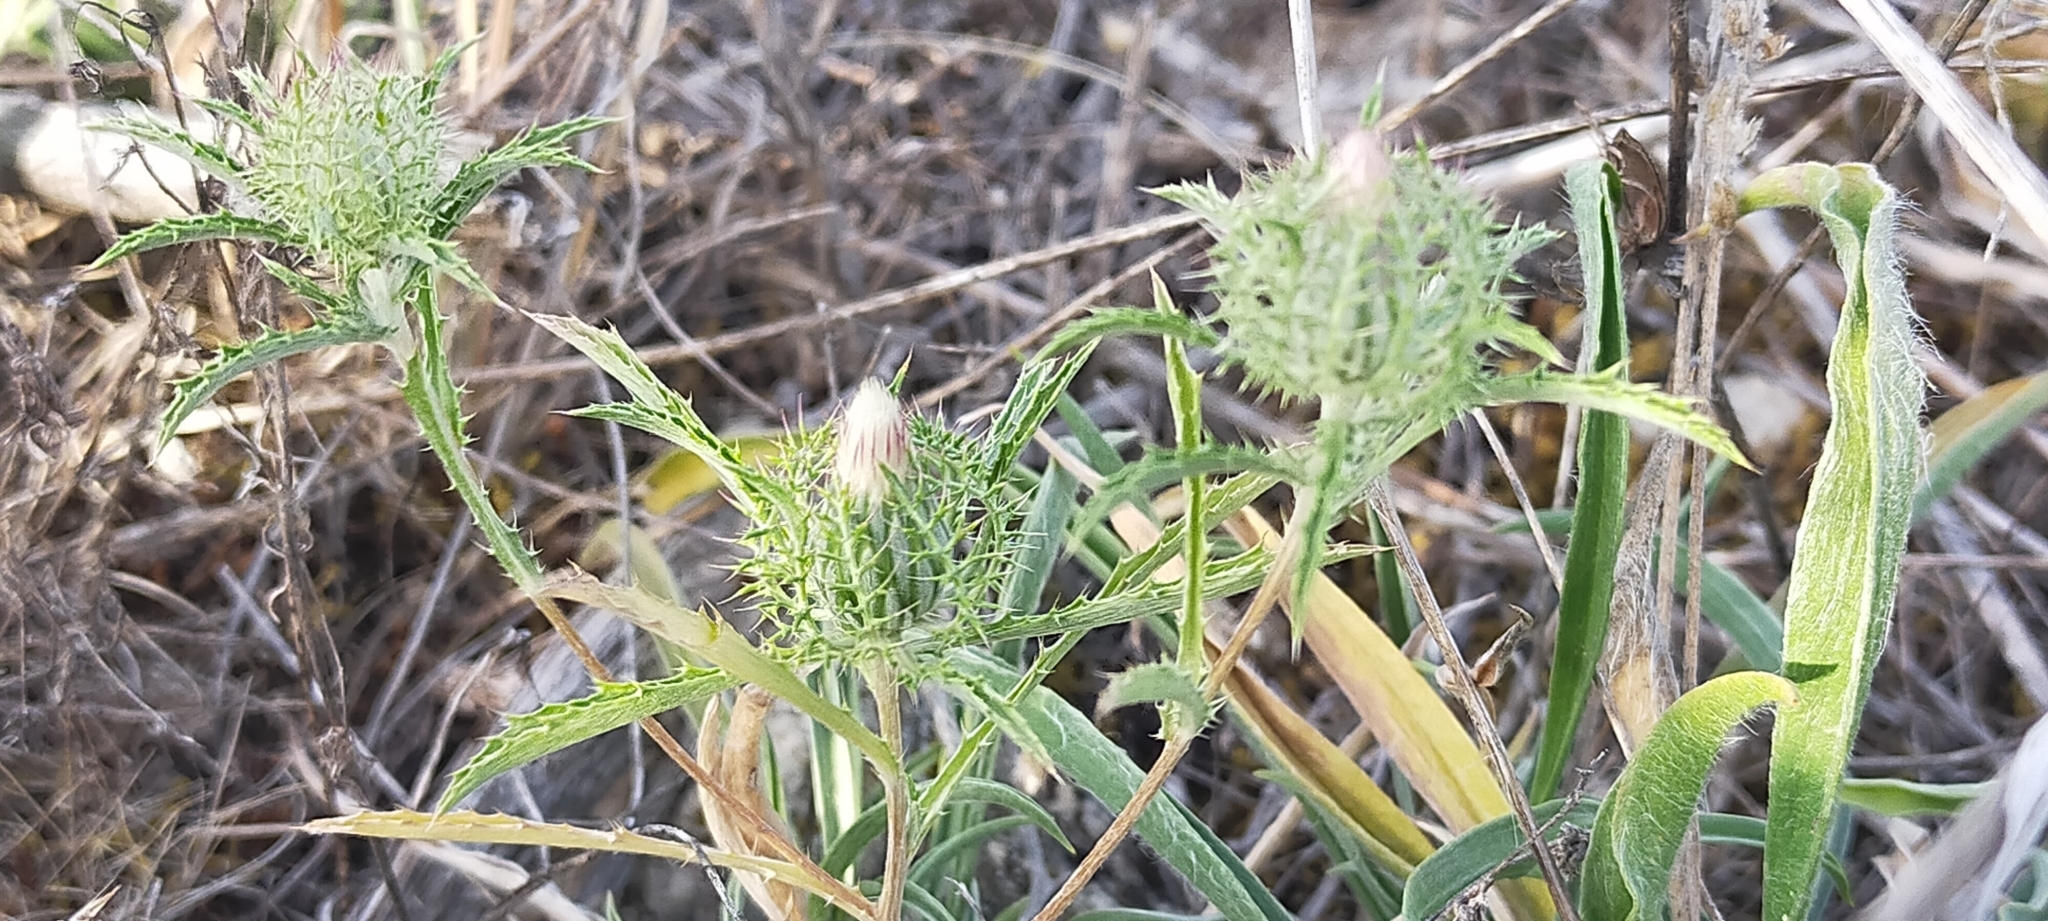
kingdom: Plantae
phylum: Tracheophyta
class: Magnoliopsida
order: Asterales
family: Asteraceae
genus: Atractylis
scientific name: Atractylis cancellata
